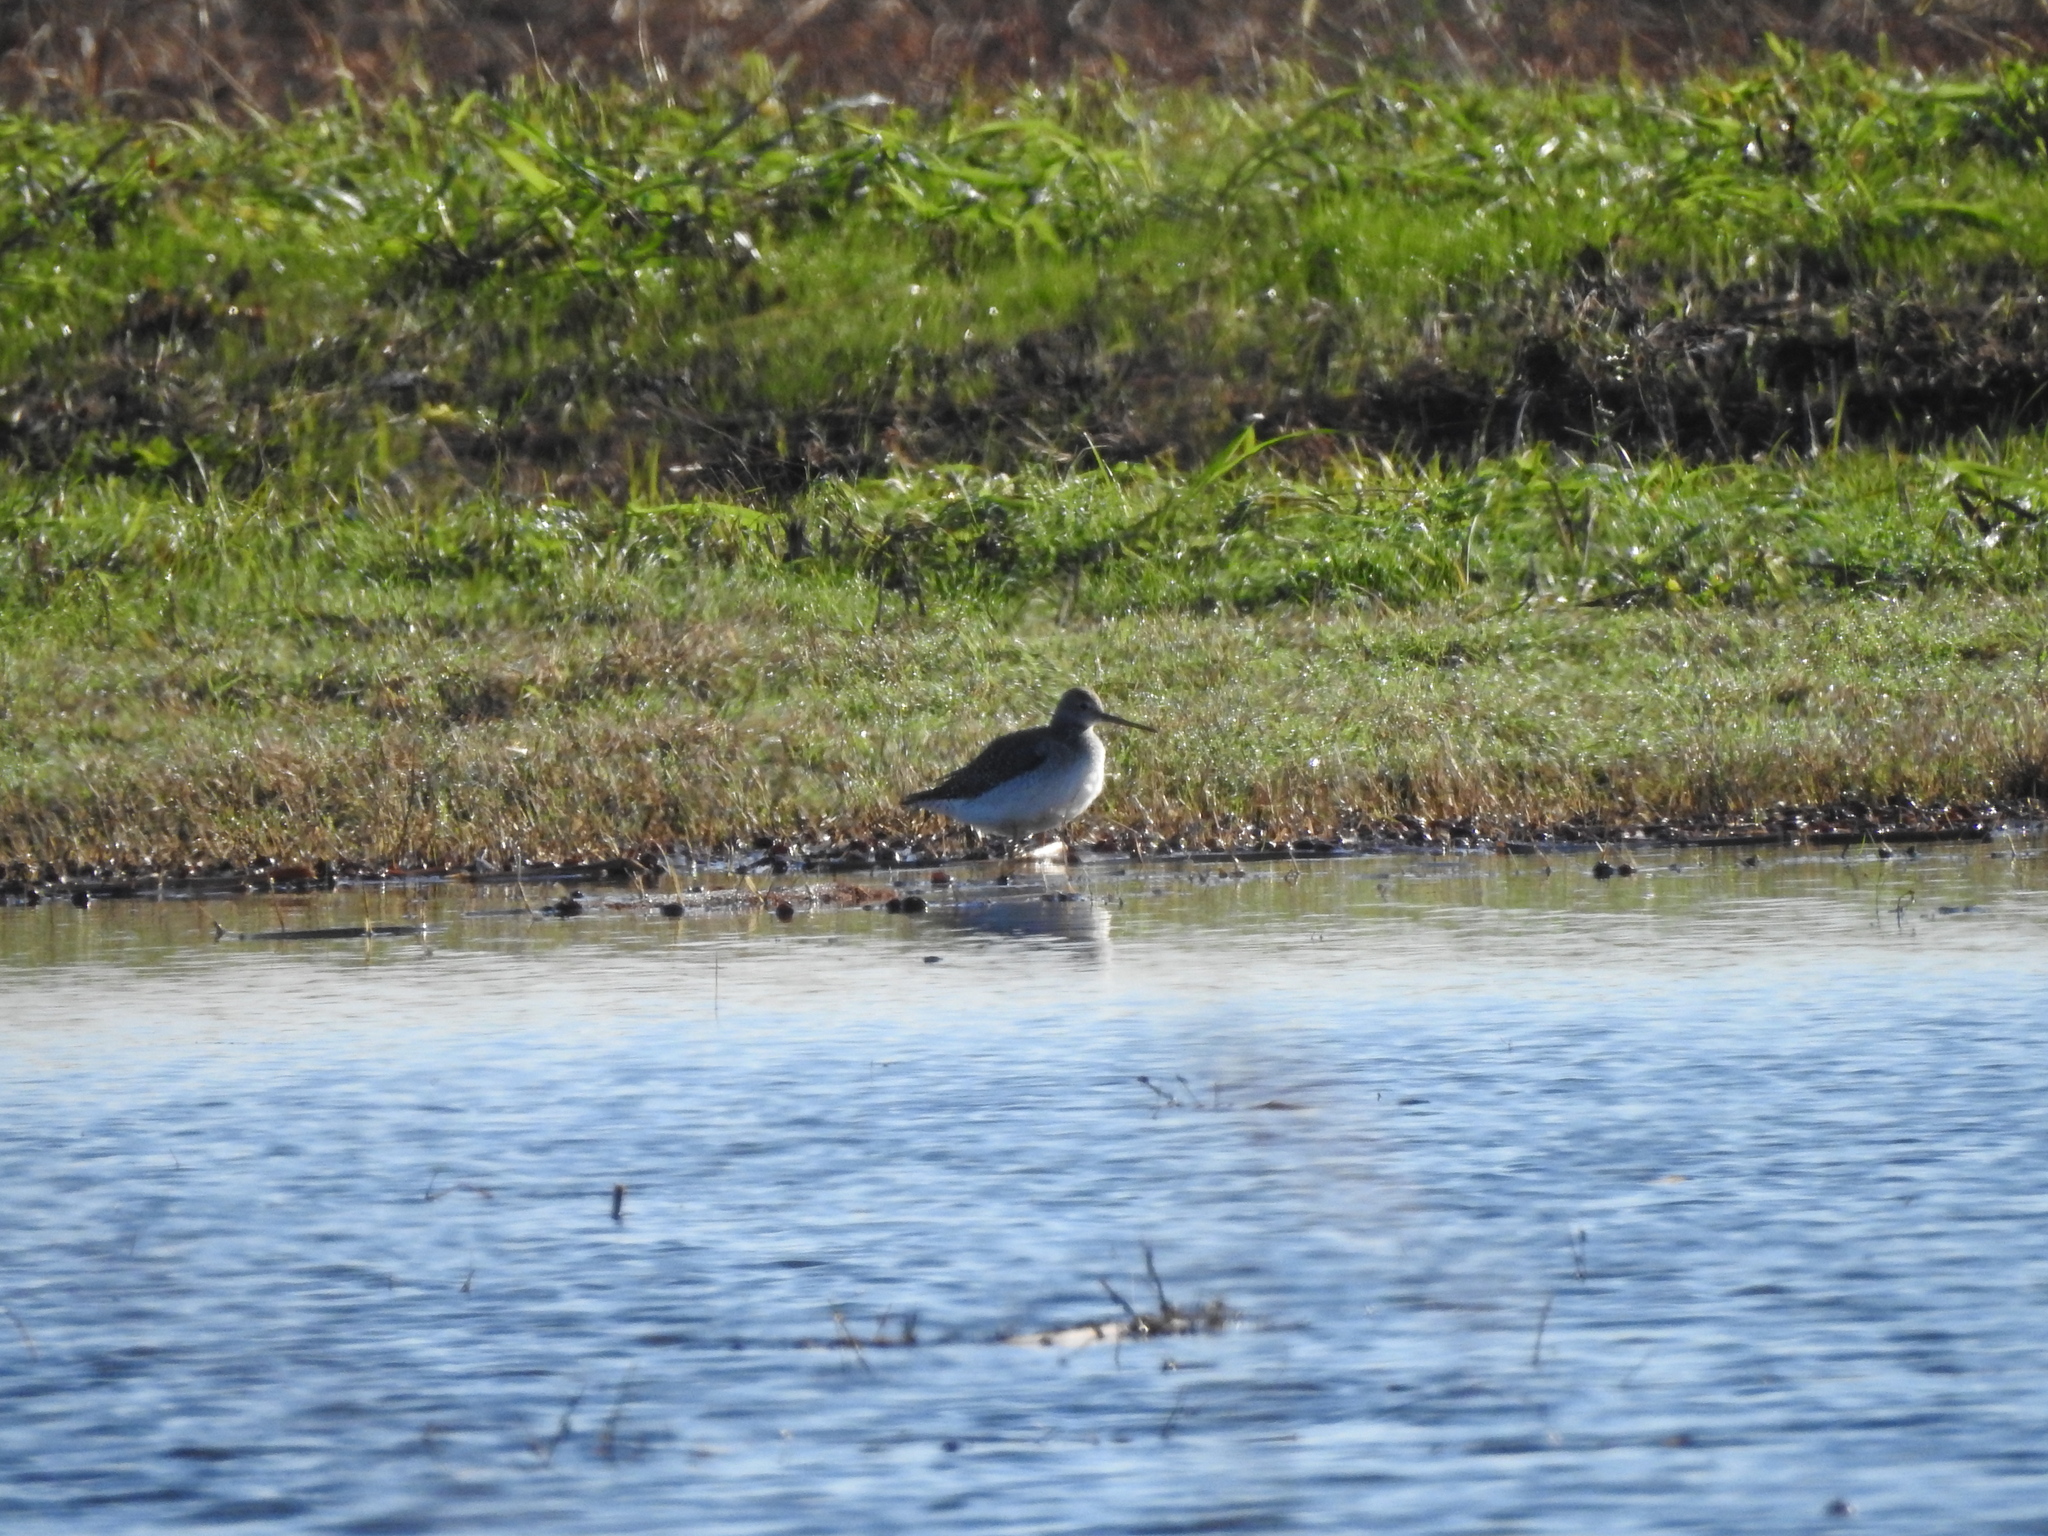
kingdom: Animalia
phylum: Chordata
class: Aves
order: Charadriiformes
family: Scolopacidae
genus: Tringa
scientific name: Tringa melanoleuca
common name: Greater yellowlegs
